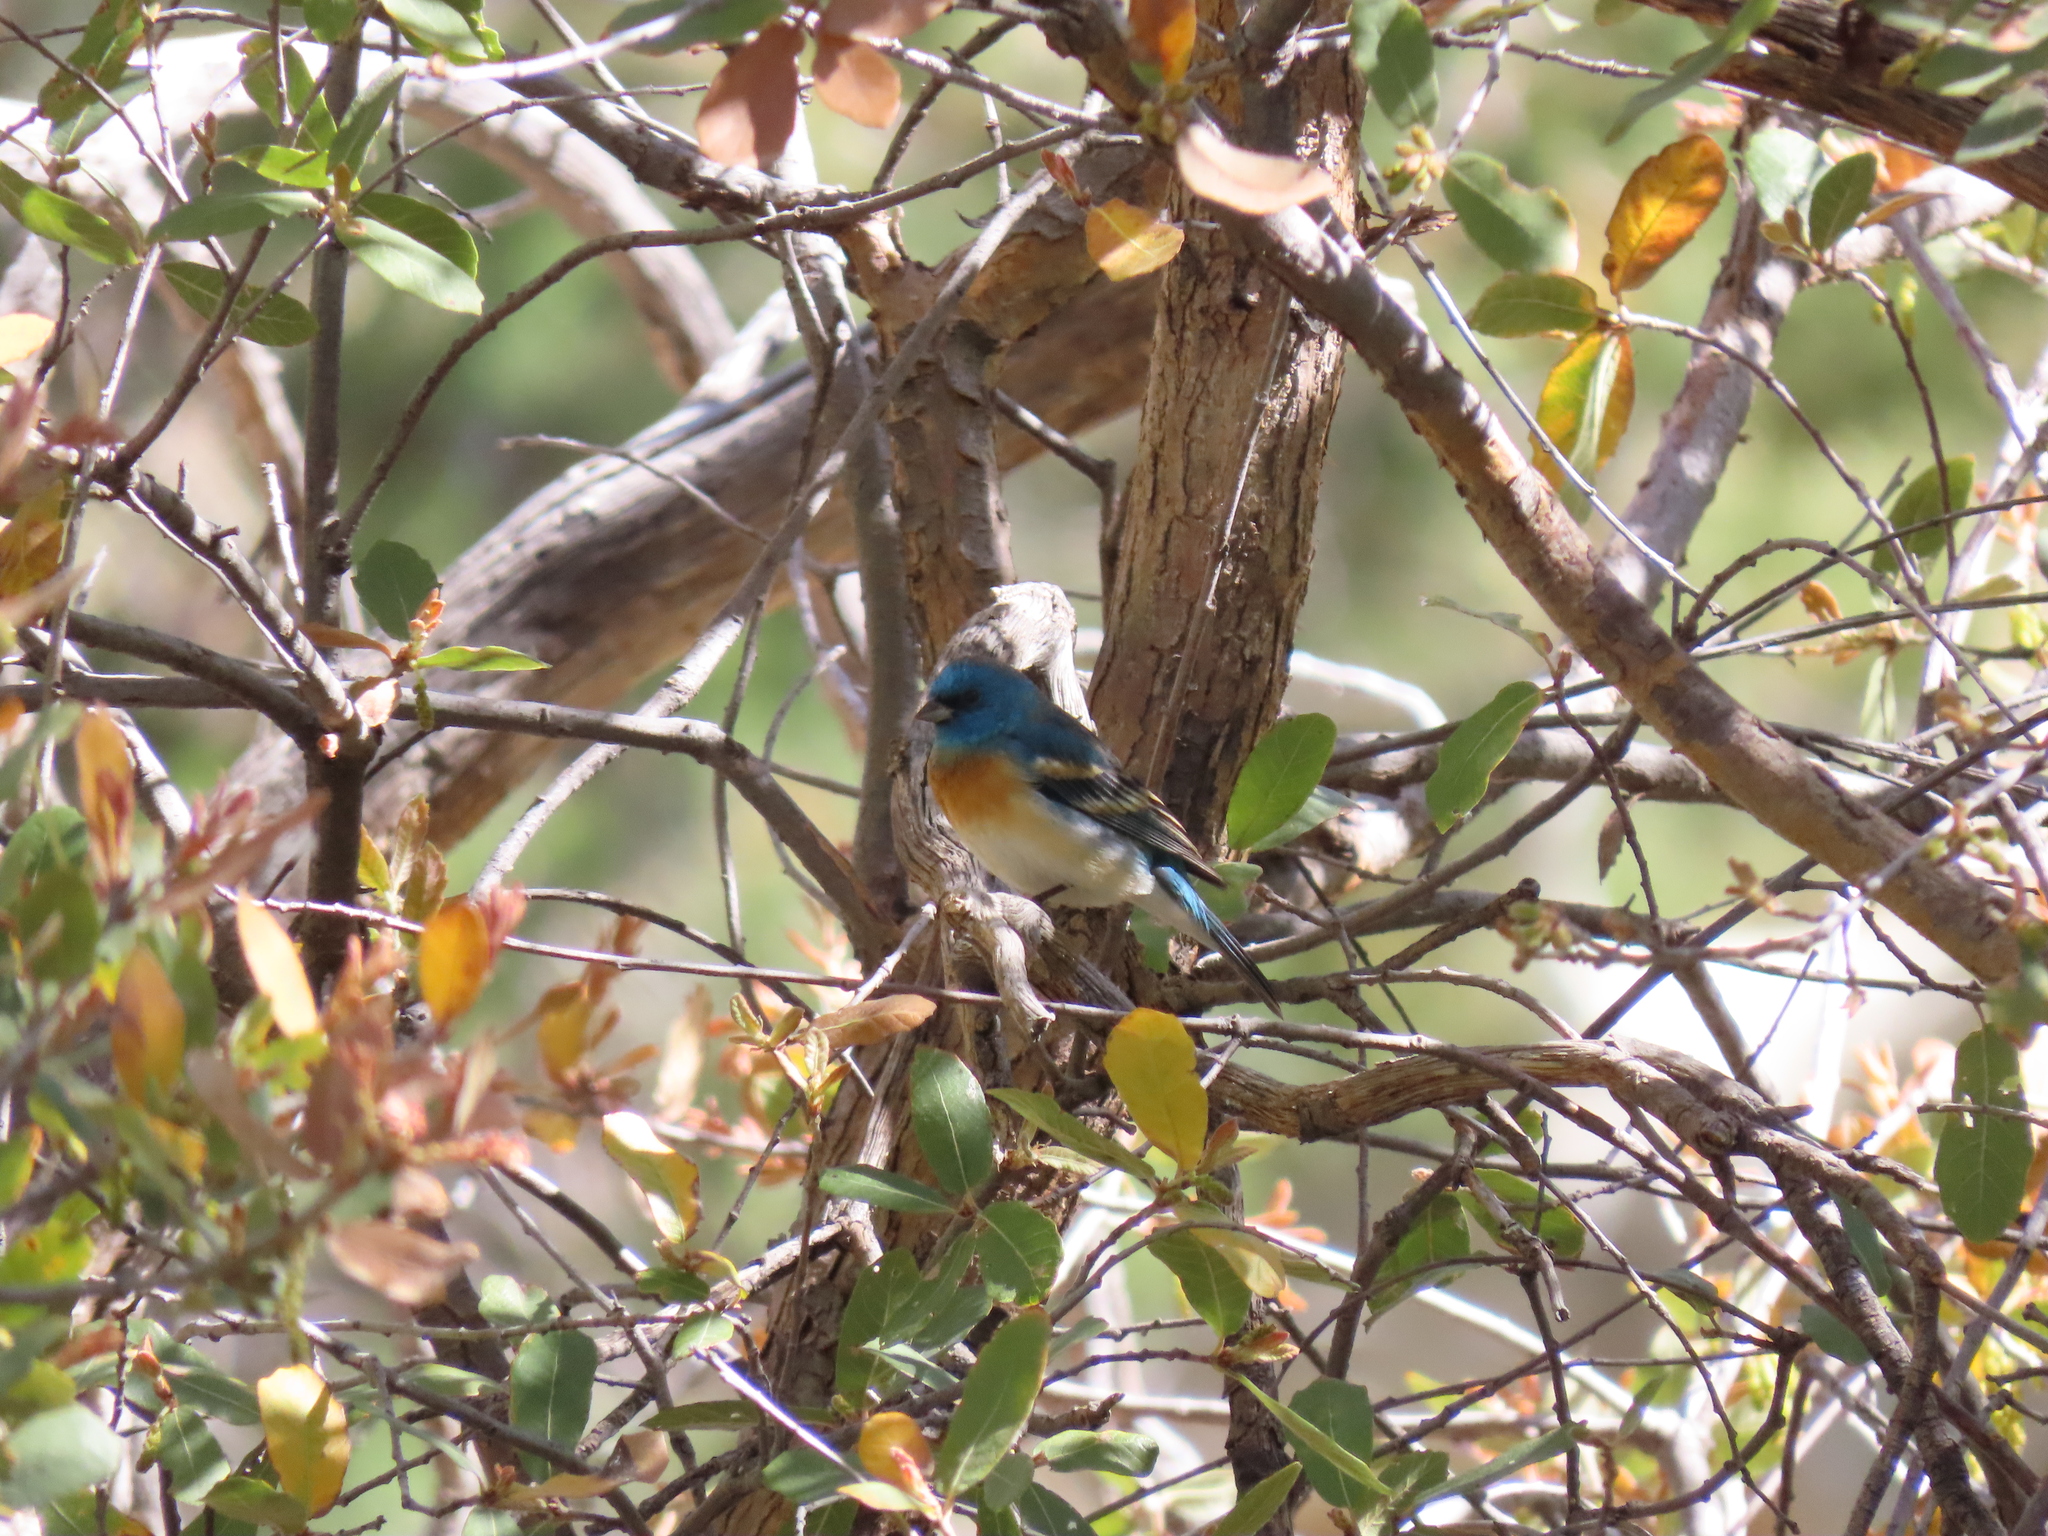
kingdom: Animalia
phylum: Chordata
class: Aves
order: Passeriformes
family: Cardinalidae
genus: Passerina
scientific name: Passerina amoena
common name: Lazuli bunting
